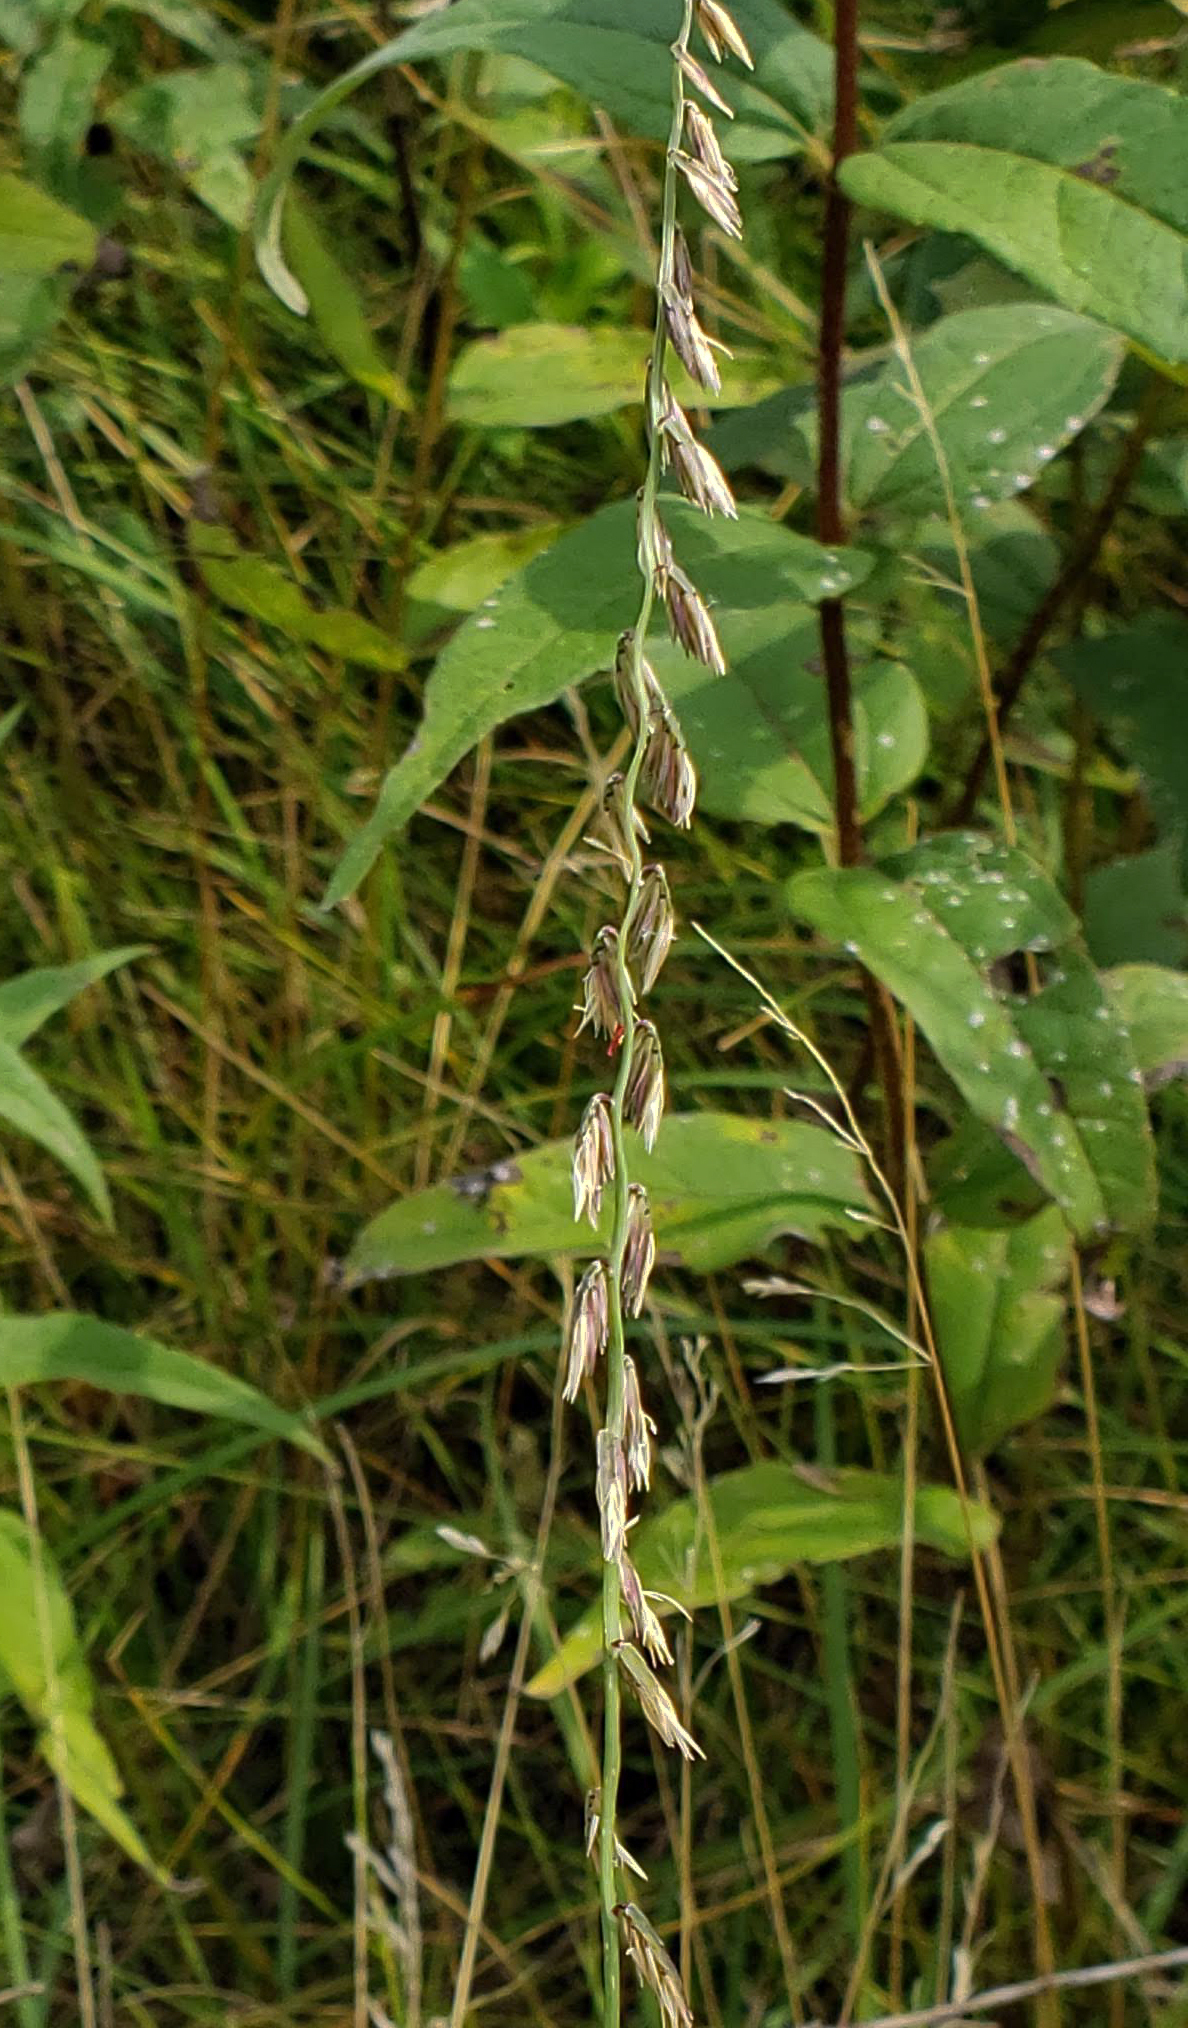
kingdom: Plantae
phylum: Tracheophyta
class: Liliopsida
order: Poales
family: Poaceae
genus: Bouteloua
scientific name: Bouteloua curtipendula
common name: Side-oats grama
